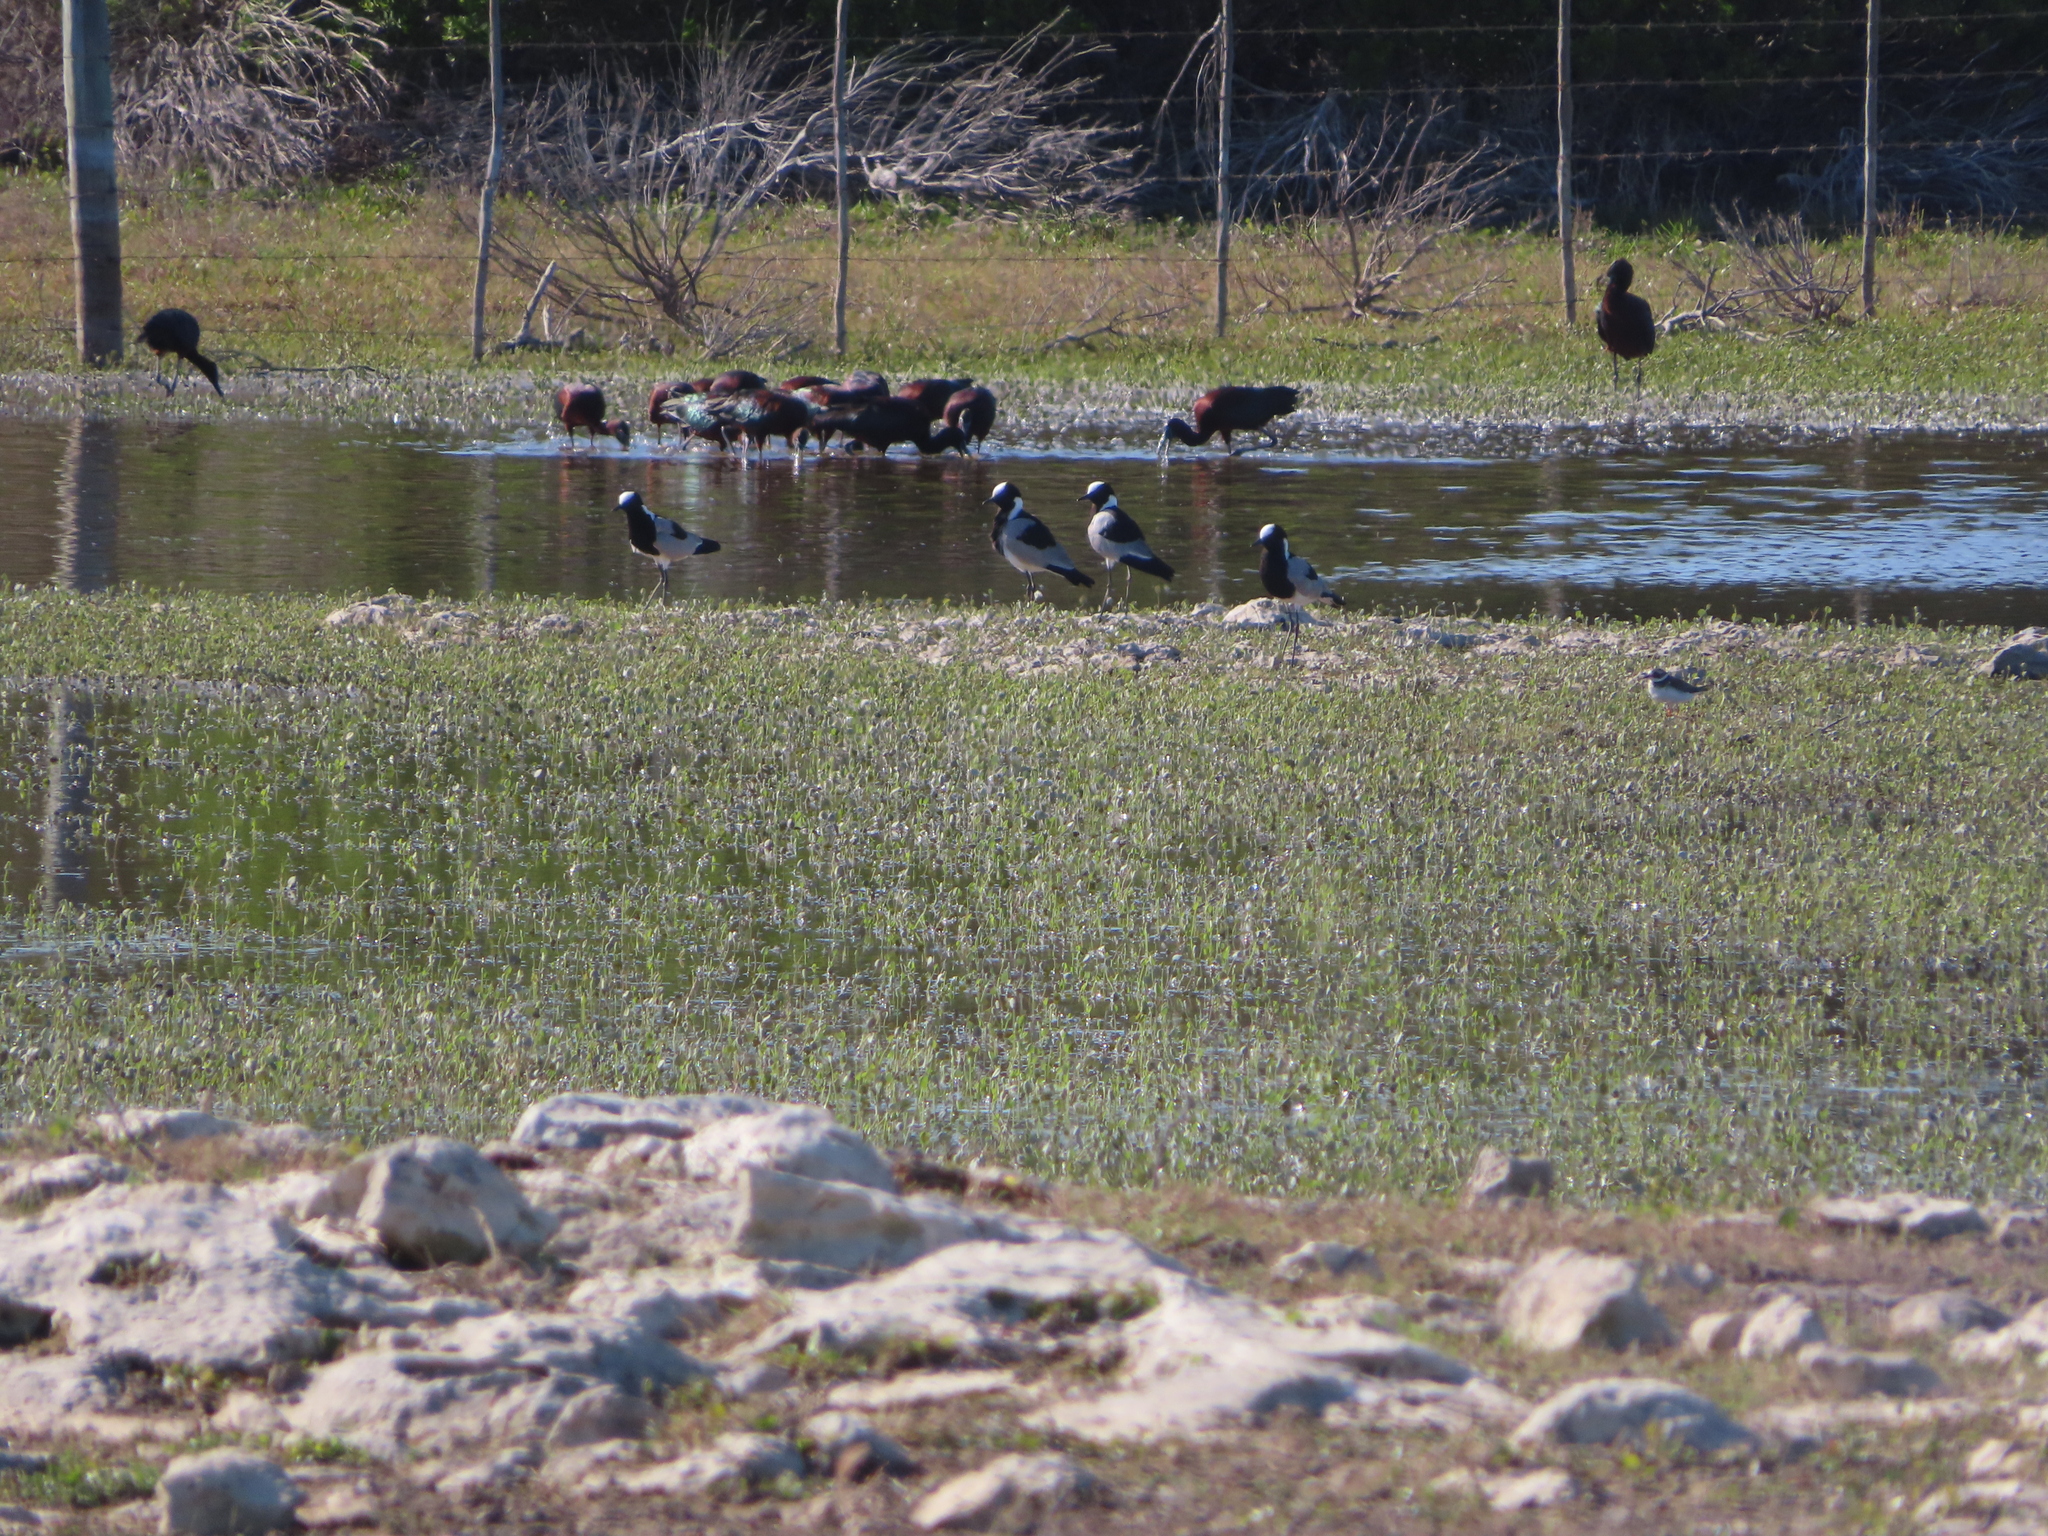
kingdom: Animalia
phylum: Chordata
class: Aves
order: Charadriiformes
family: Charadriidae
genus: Vanellus
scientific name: Vanellus armatus
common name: Blacksmith lapwing
